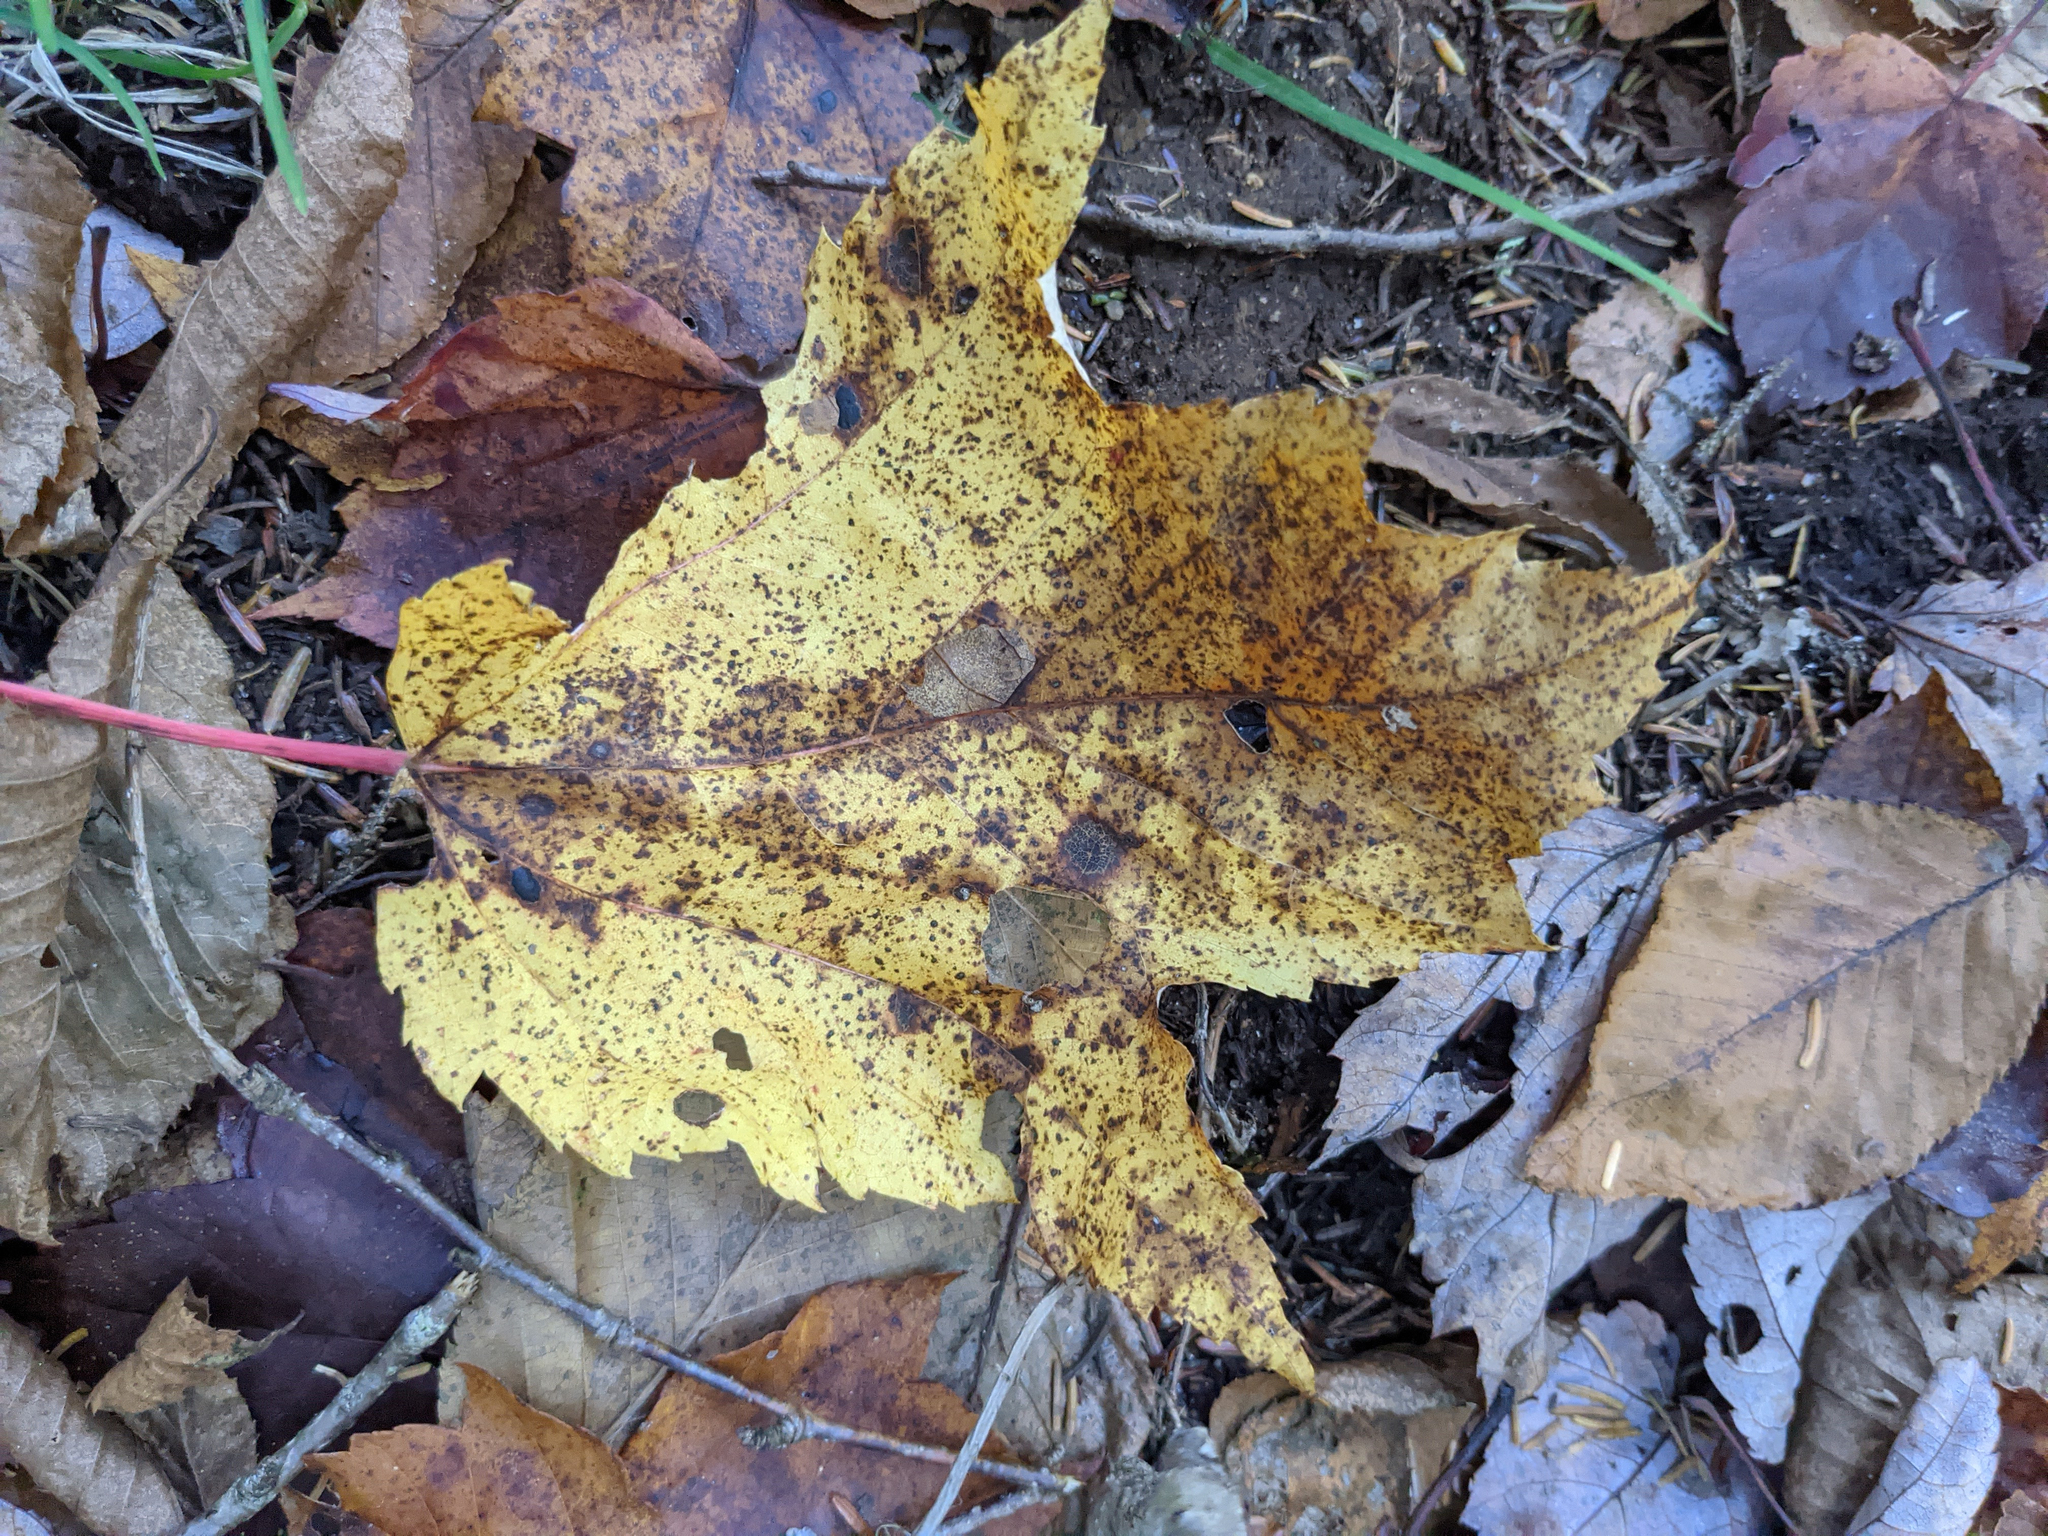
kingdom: Plantae
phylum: Tracheophyta
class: Magnoliopsida
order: Sapindales
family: Sapindaceae
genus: Acer
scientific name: Acer rubrum
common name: Red maple
